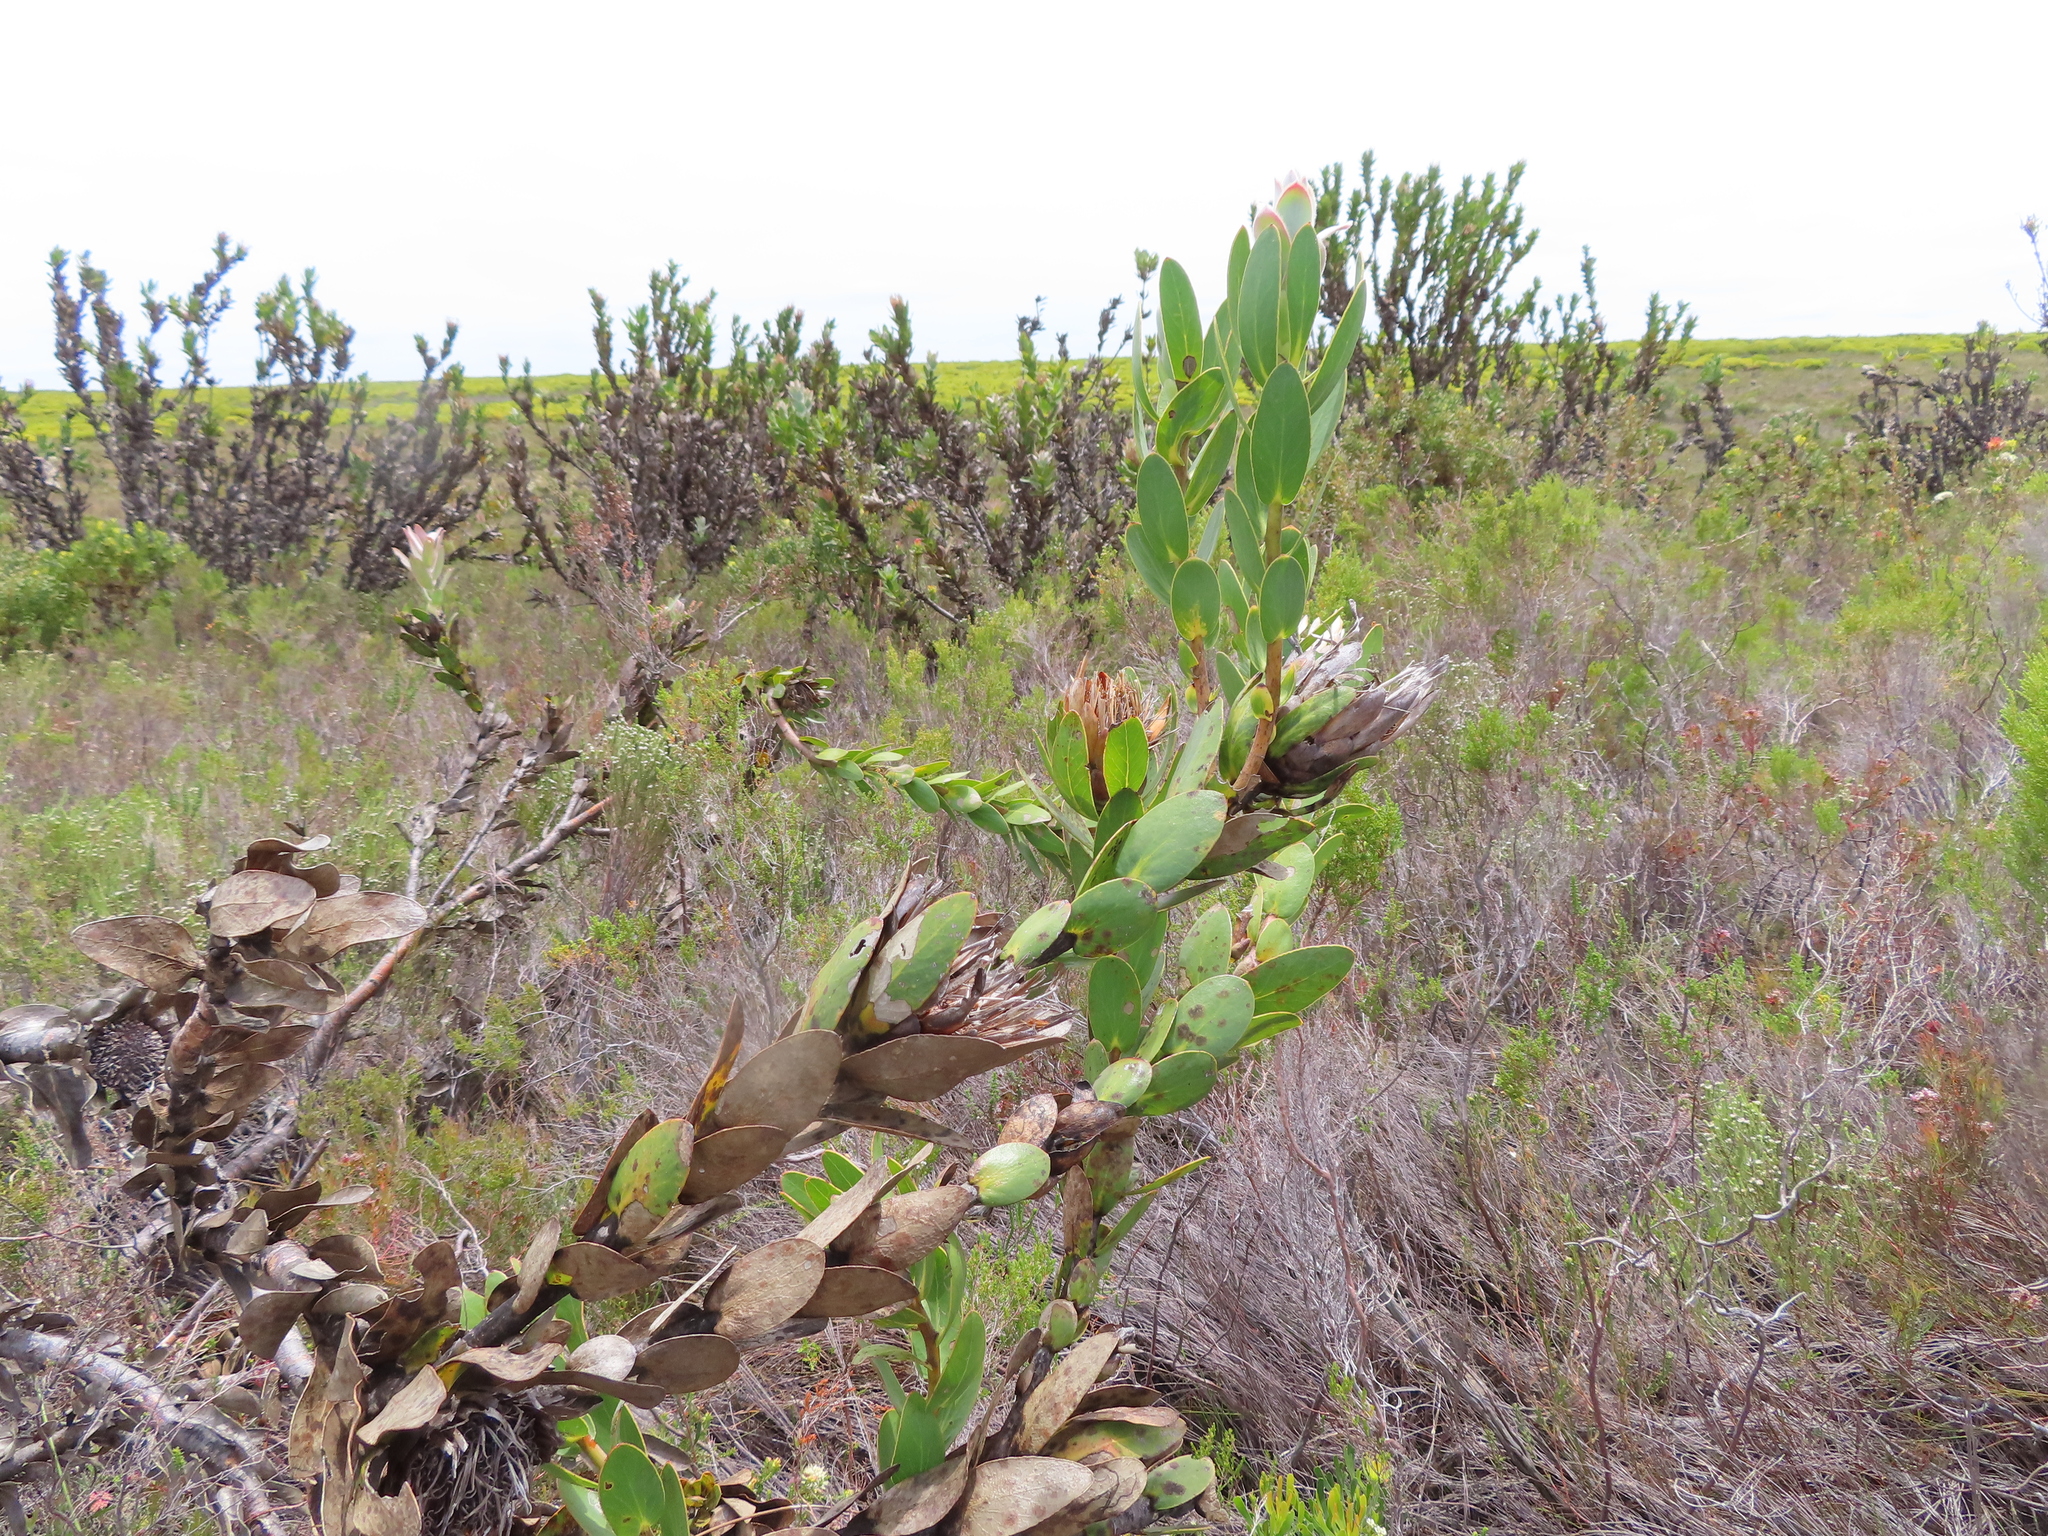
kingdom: Plantae
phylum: Tracheophyta
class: Magnoliopsida
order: Proteales
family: Proteaceae
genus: Protea
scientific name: Protea compacta
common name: Bot river protea
